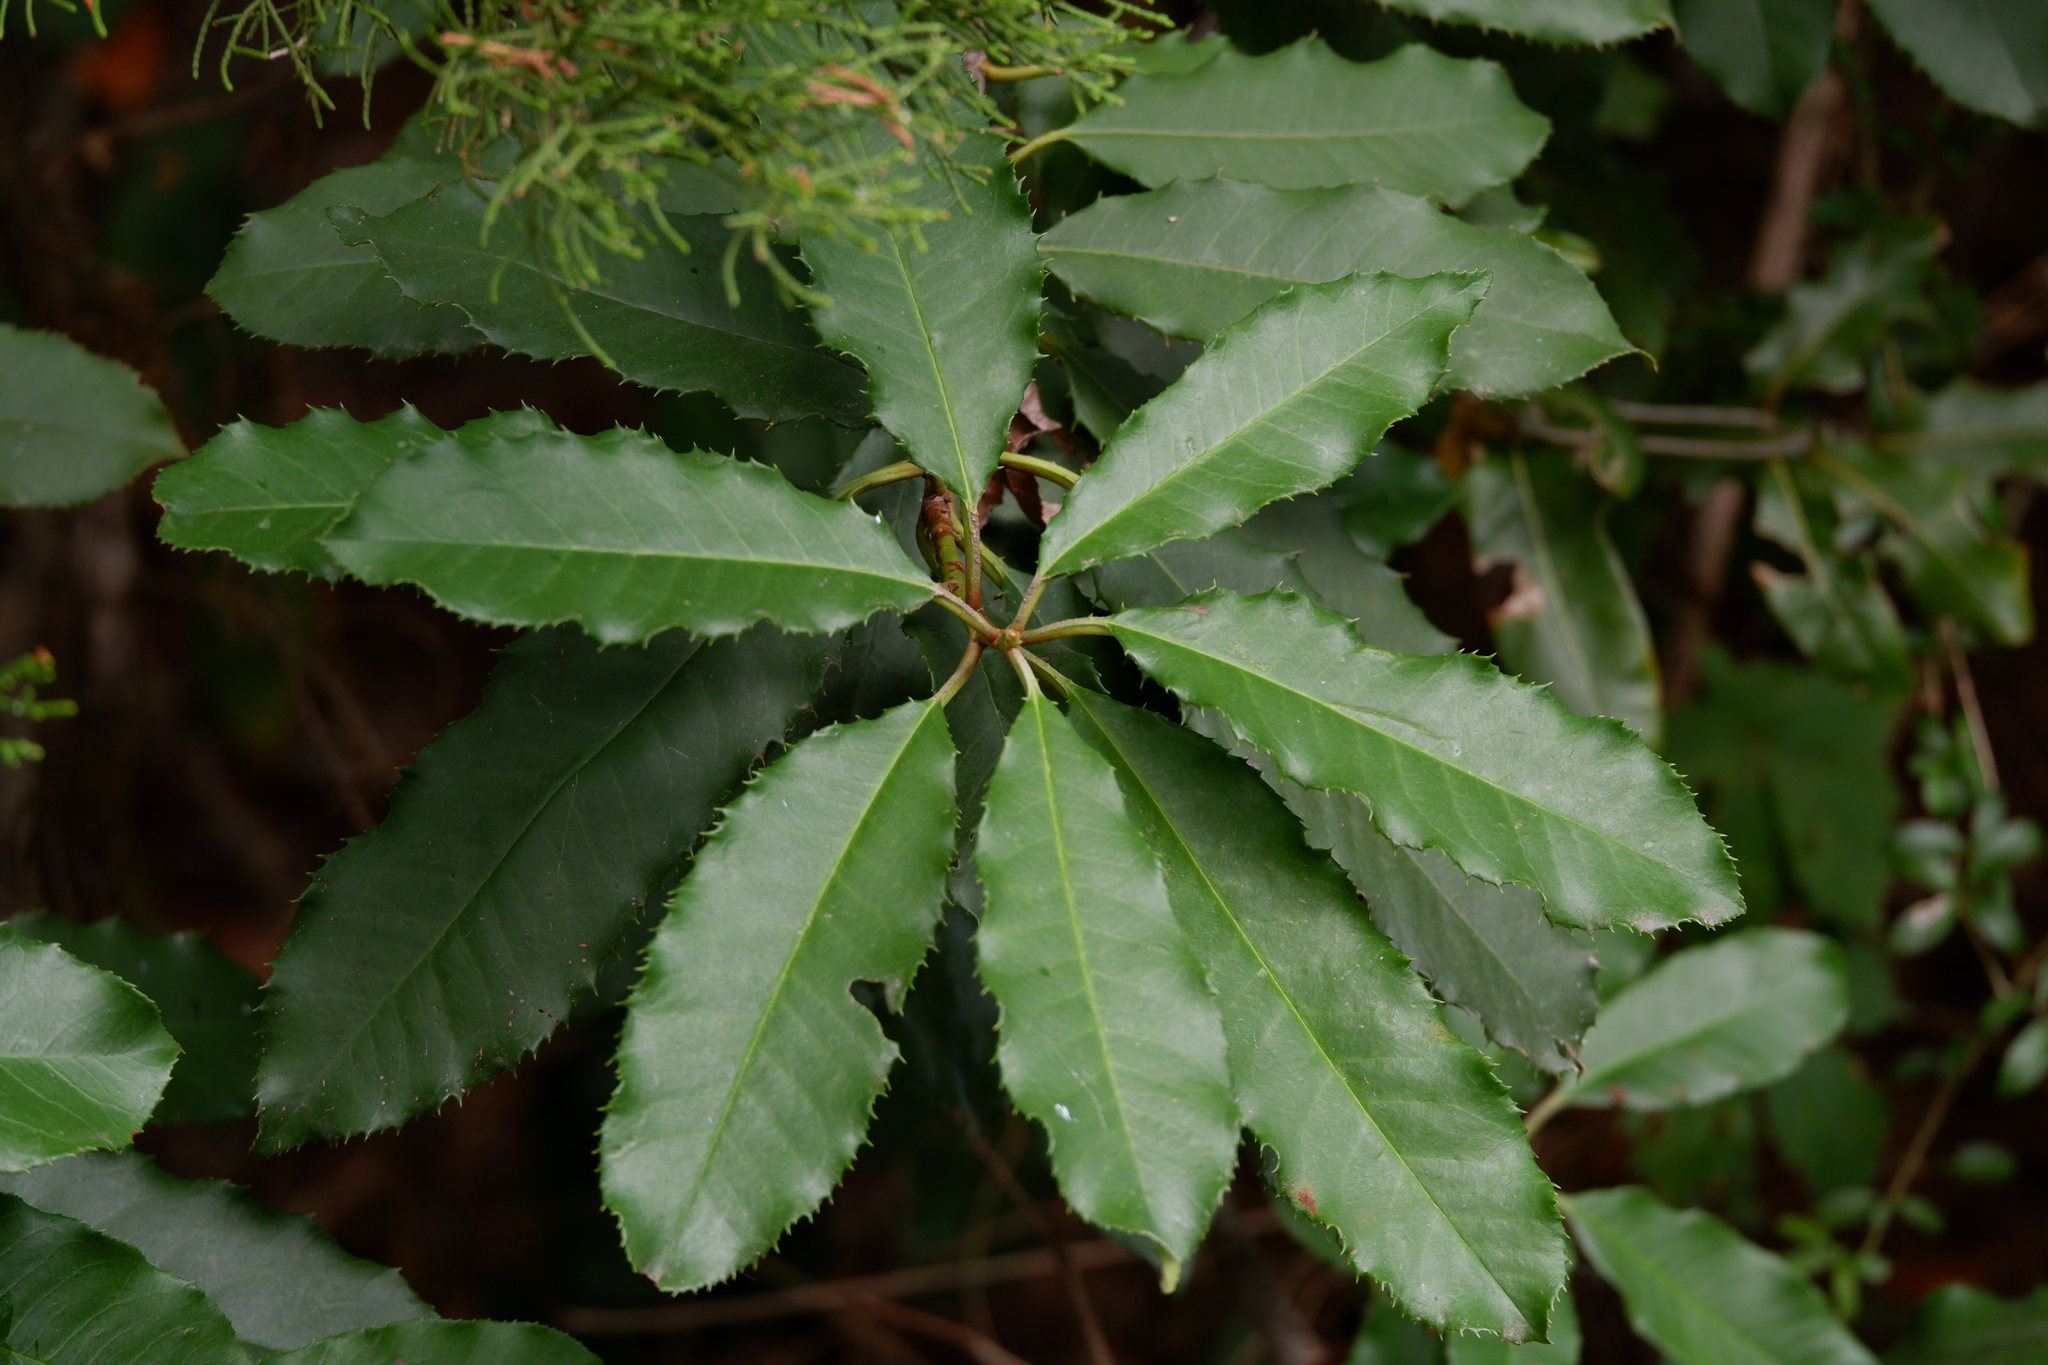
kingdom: Plantae
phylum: Tracheophyta
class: Magnoliopsida
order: Rosales
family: Rosaceae
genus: Photinia
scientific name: Photinia serratifolia
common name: Taiwanese photinia
